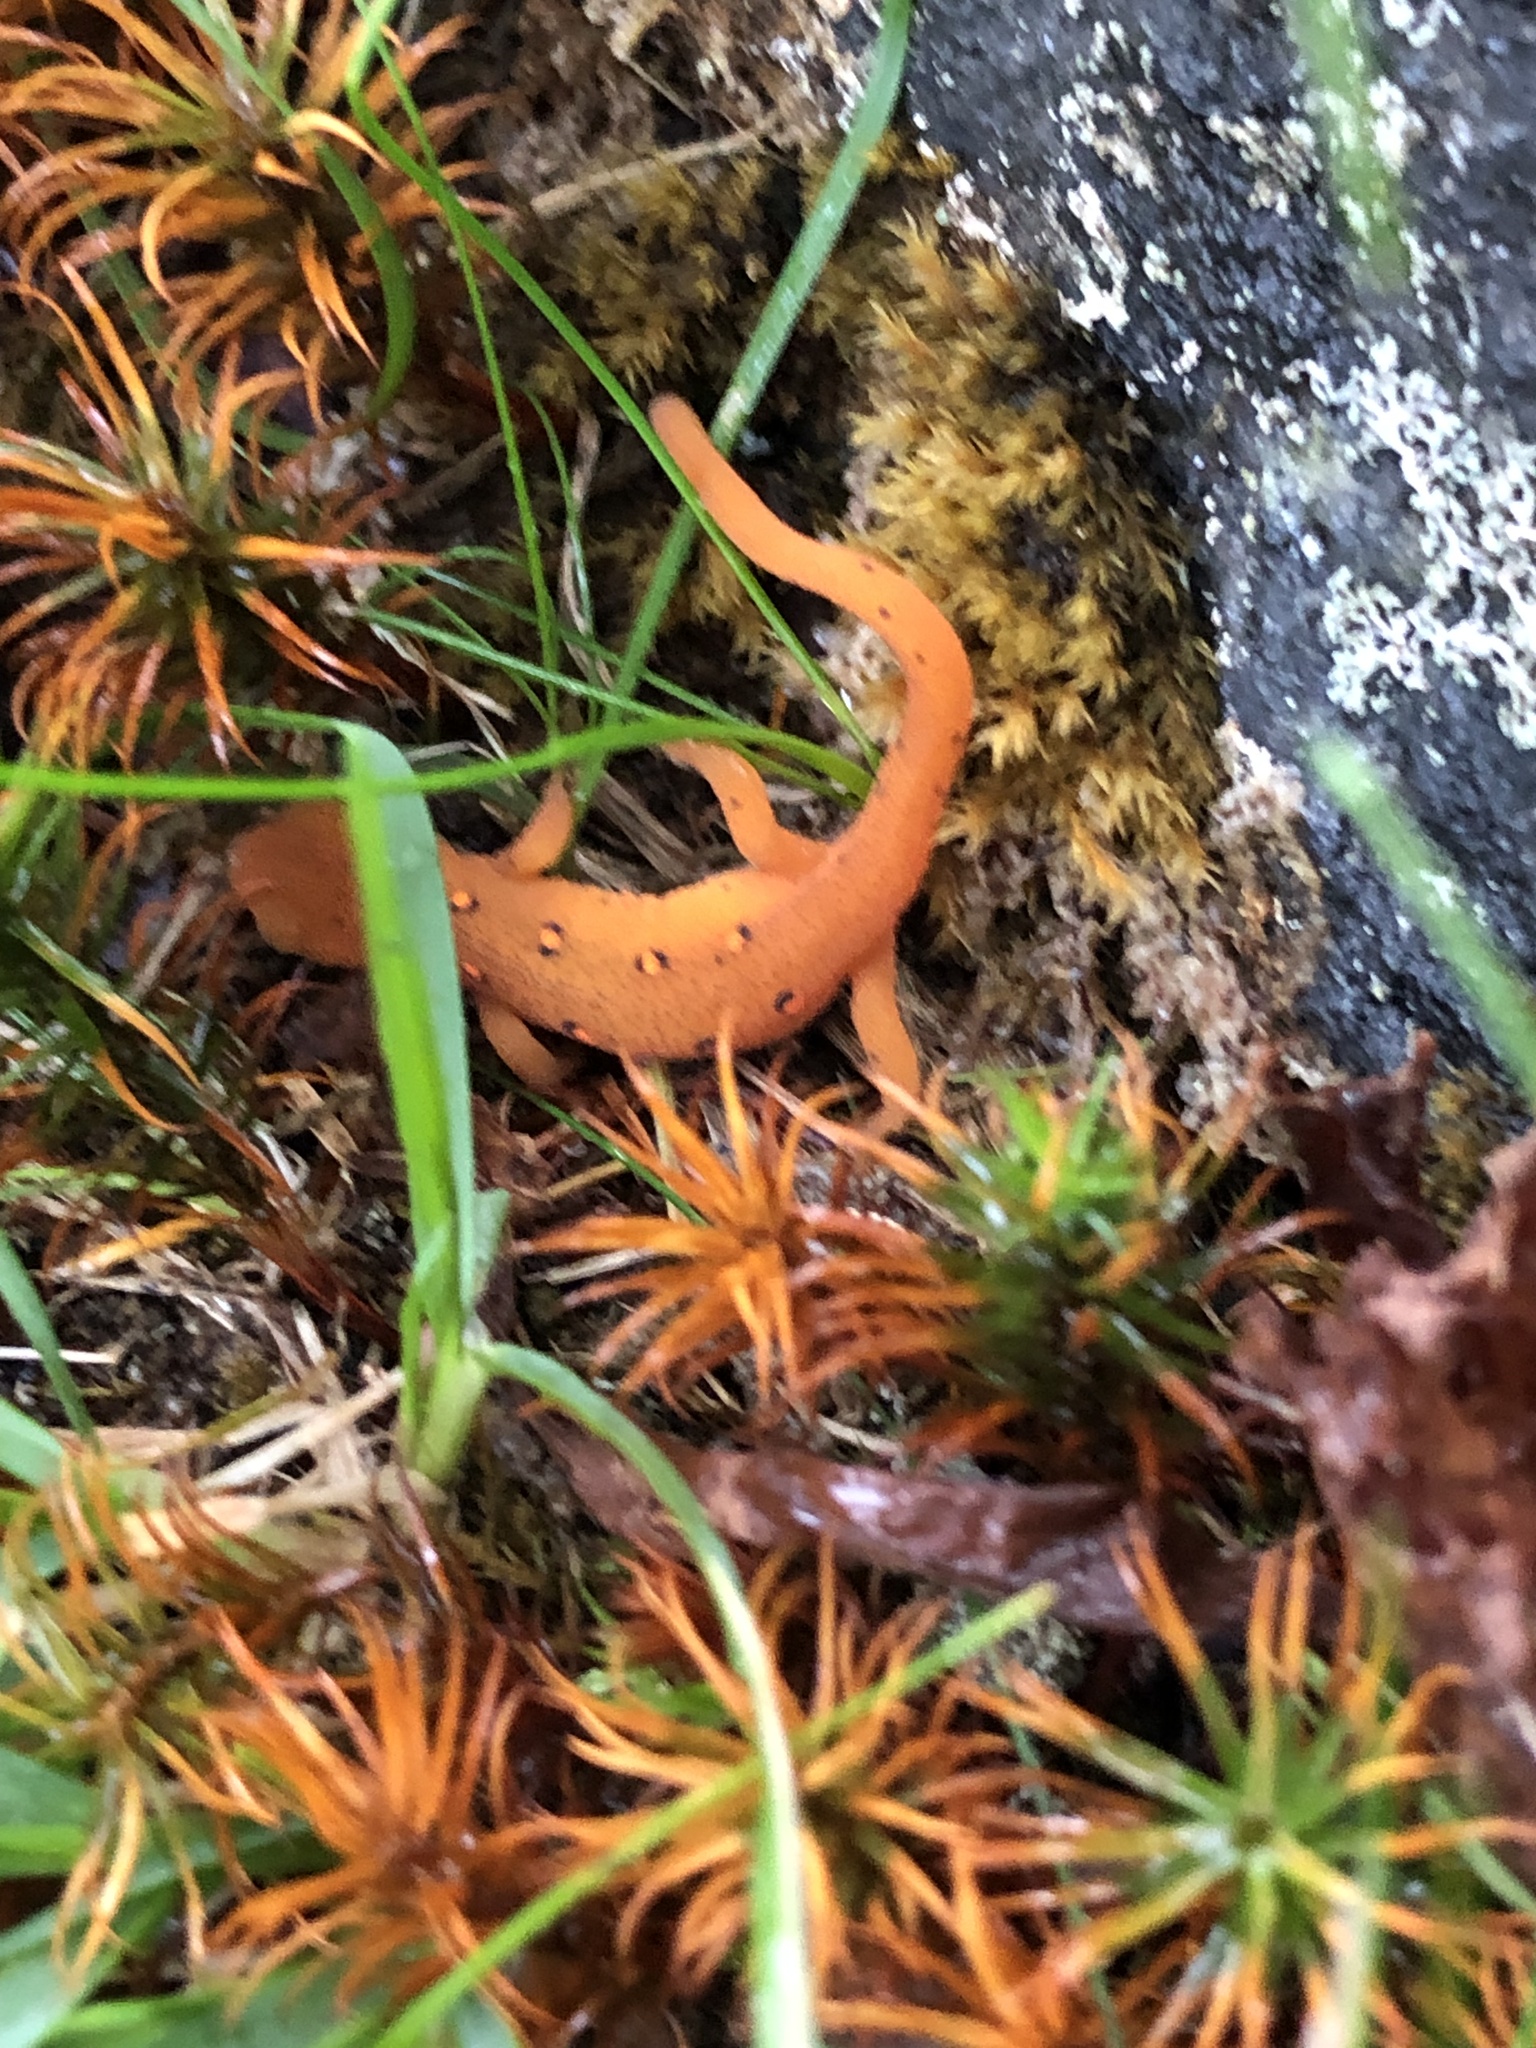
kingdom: Animalia
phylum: Chordata
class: Amphibia
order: Caudata
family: Salamandridae
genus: Notophthalmus
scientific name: Notophthalmus viridescens
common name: Eastern newt
